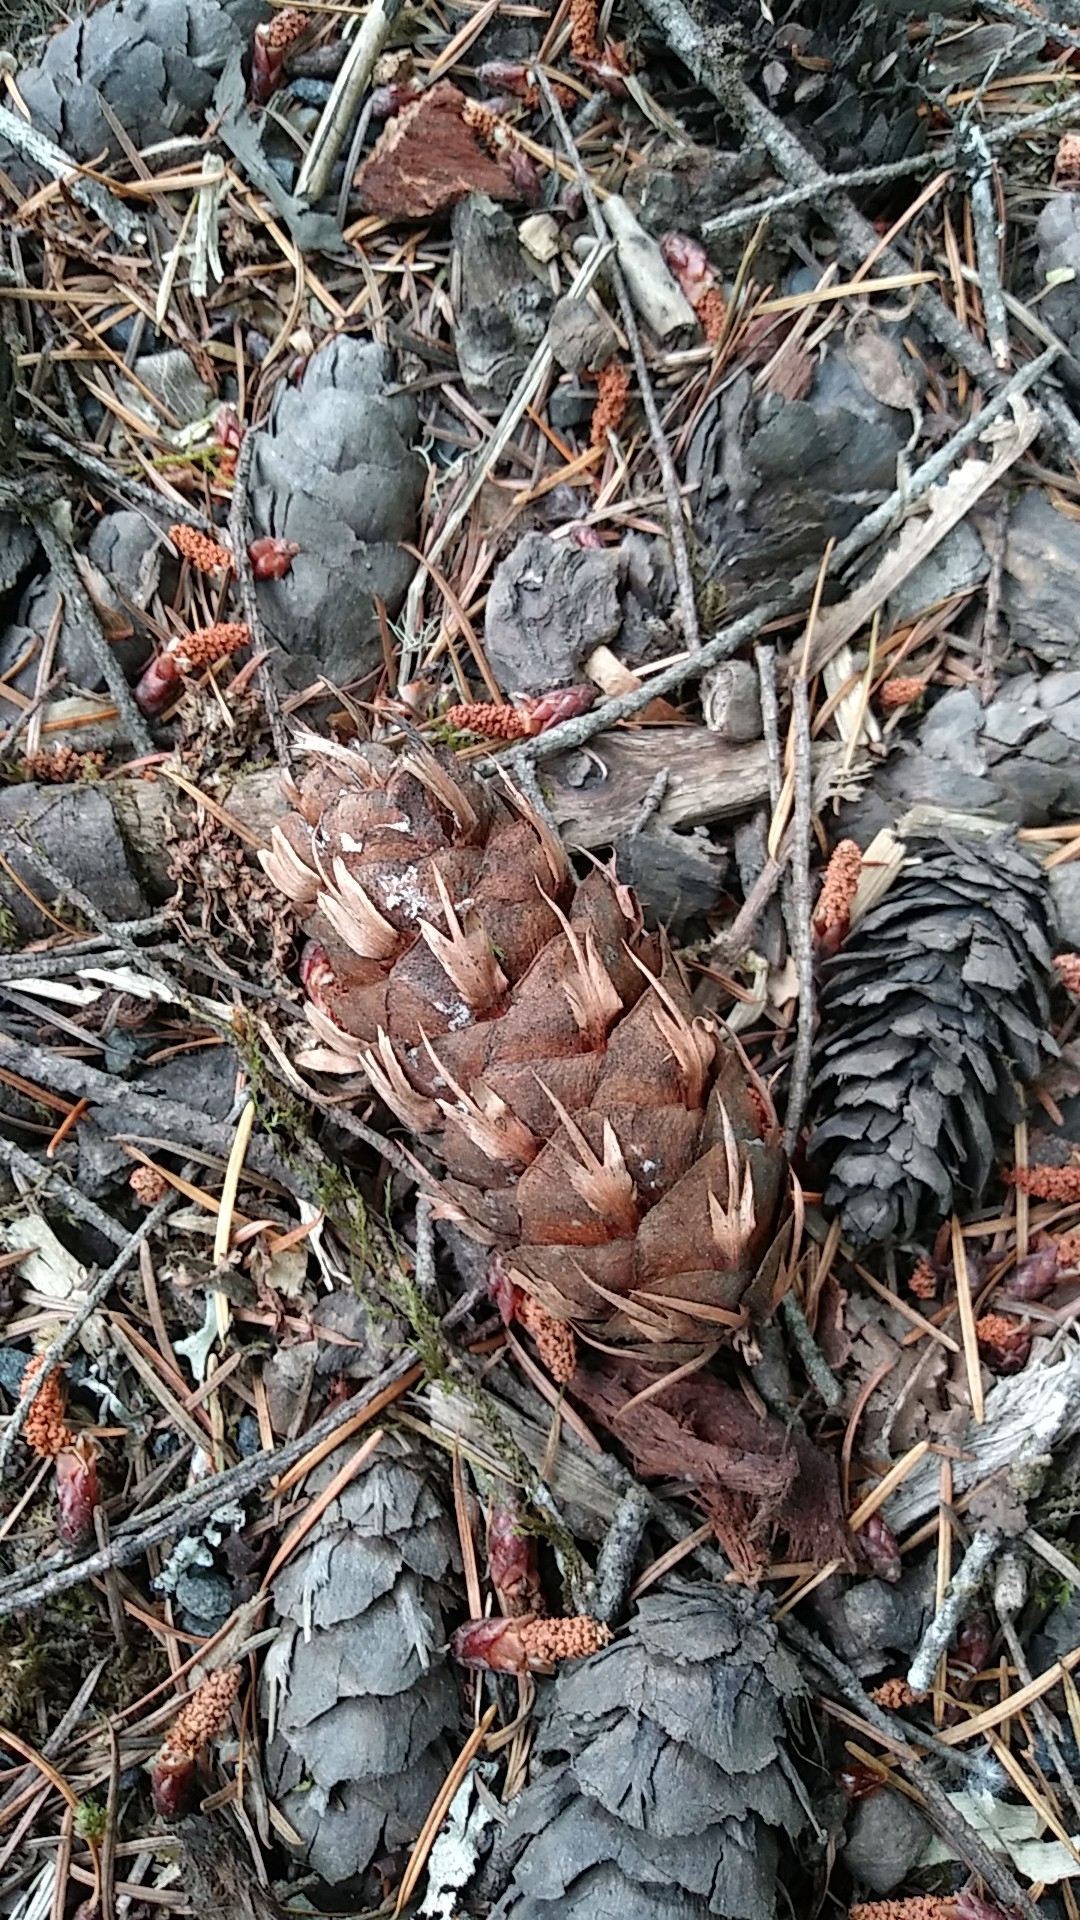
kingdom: Plantae
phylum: Tracheophyta
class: Pinopsida
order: Pinales
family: Pinaceae
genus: Pseudotsuga
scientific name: Pseudotsuga menziesii
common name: Douglas fir
